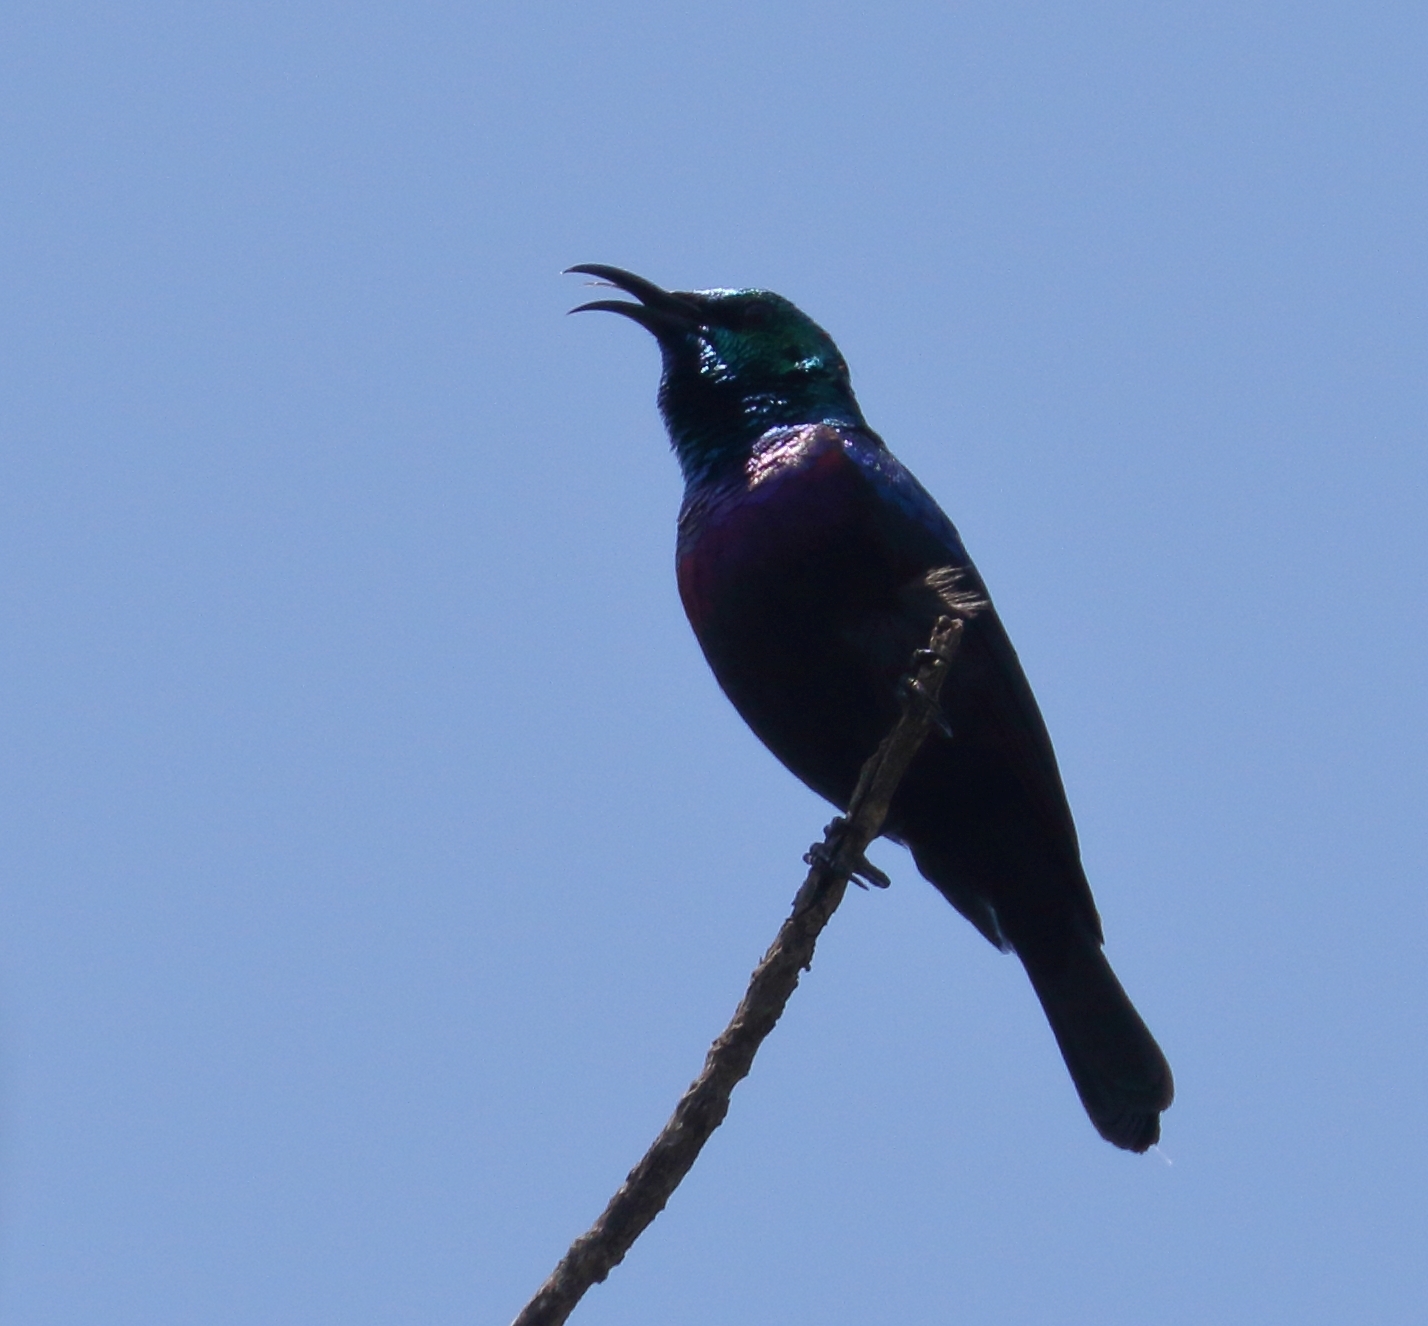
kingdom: Animalia
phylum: Chordata
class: Aves
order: Passeriformes
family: Nectariniidae
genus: Cinnyris
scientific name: Cinnyris bifasciatus
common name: Purple-banded sunbird
